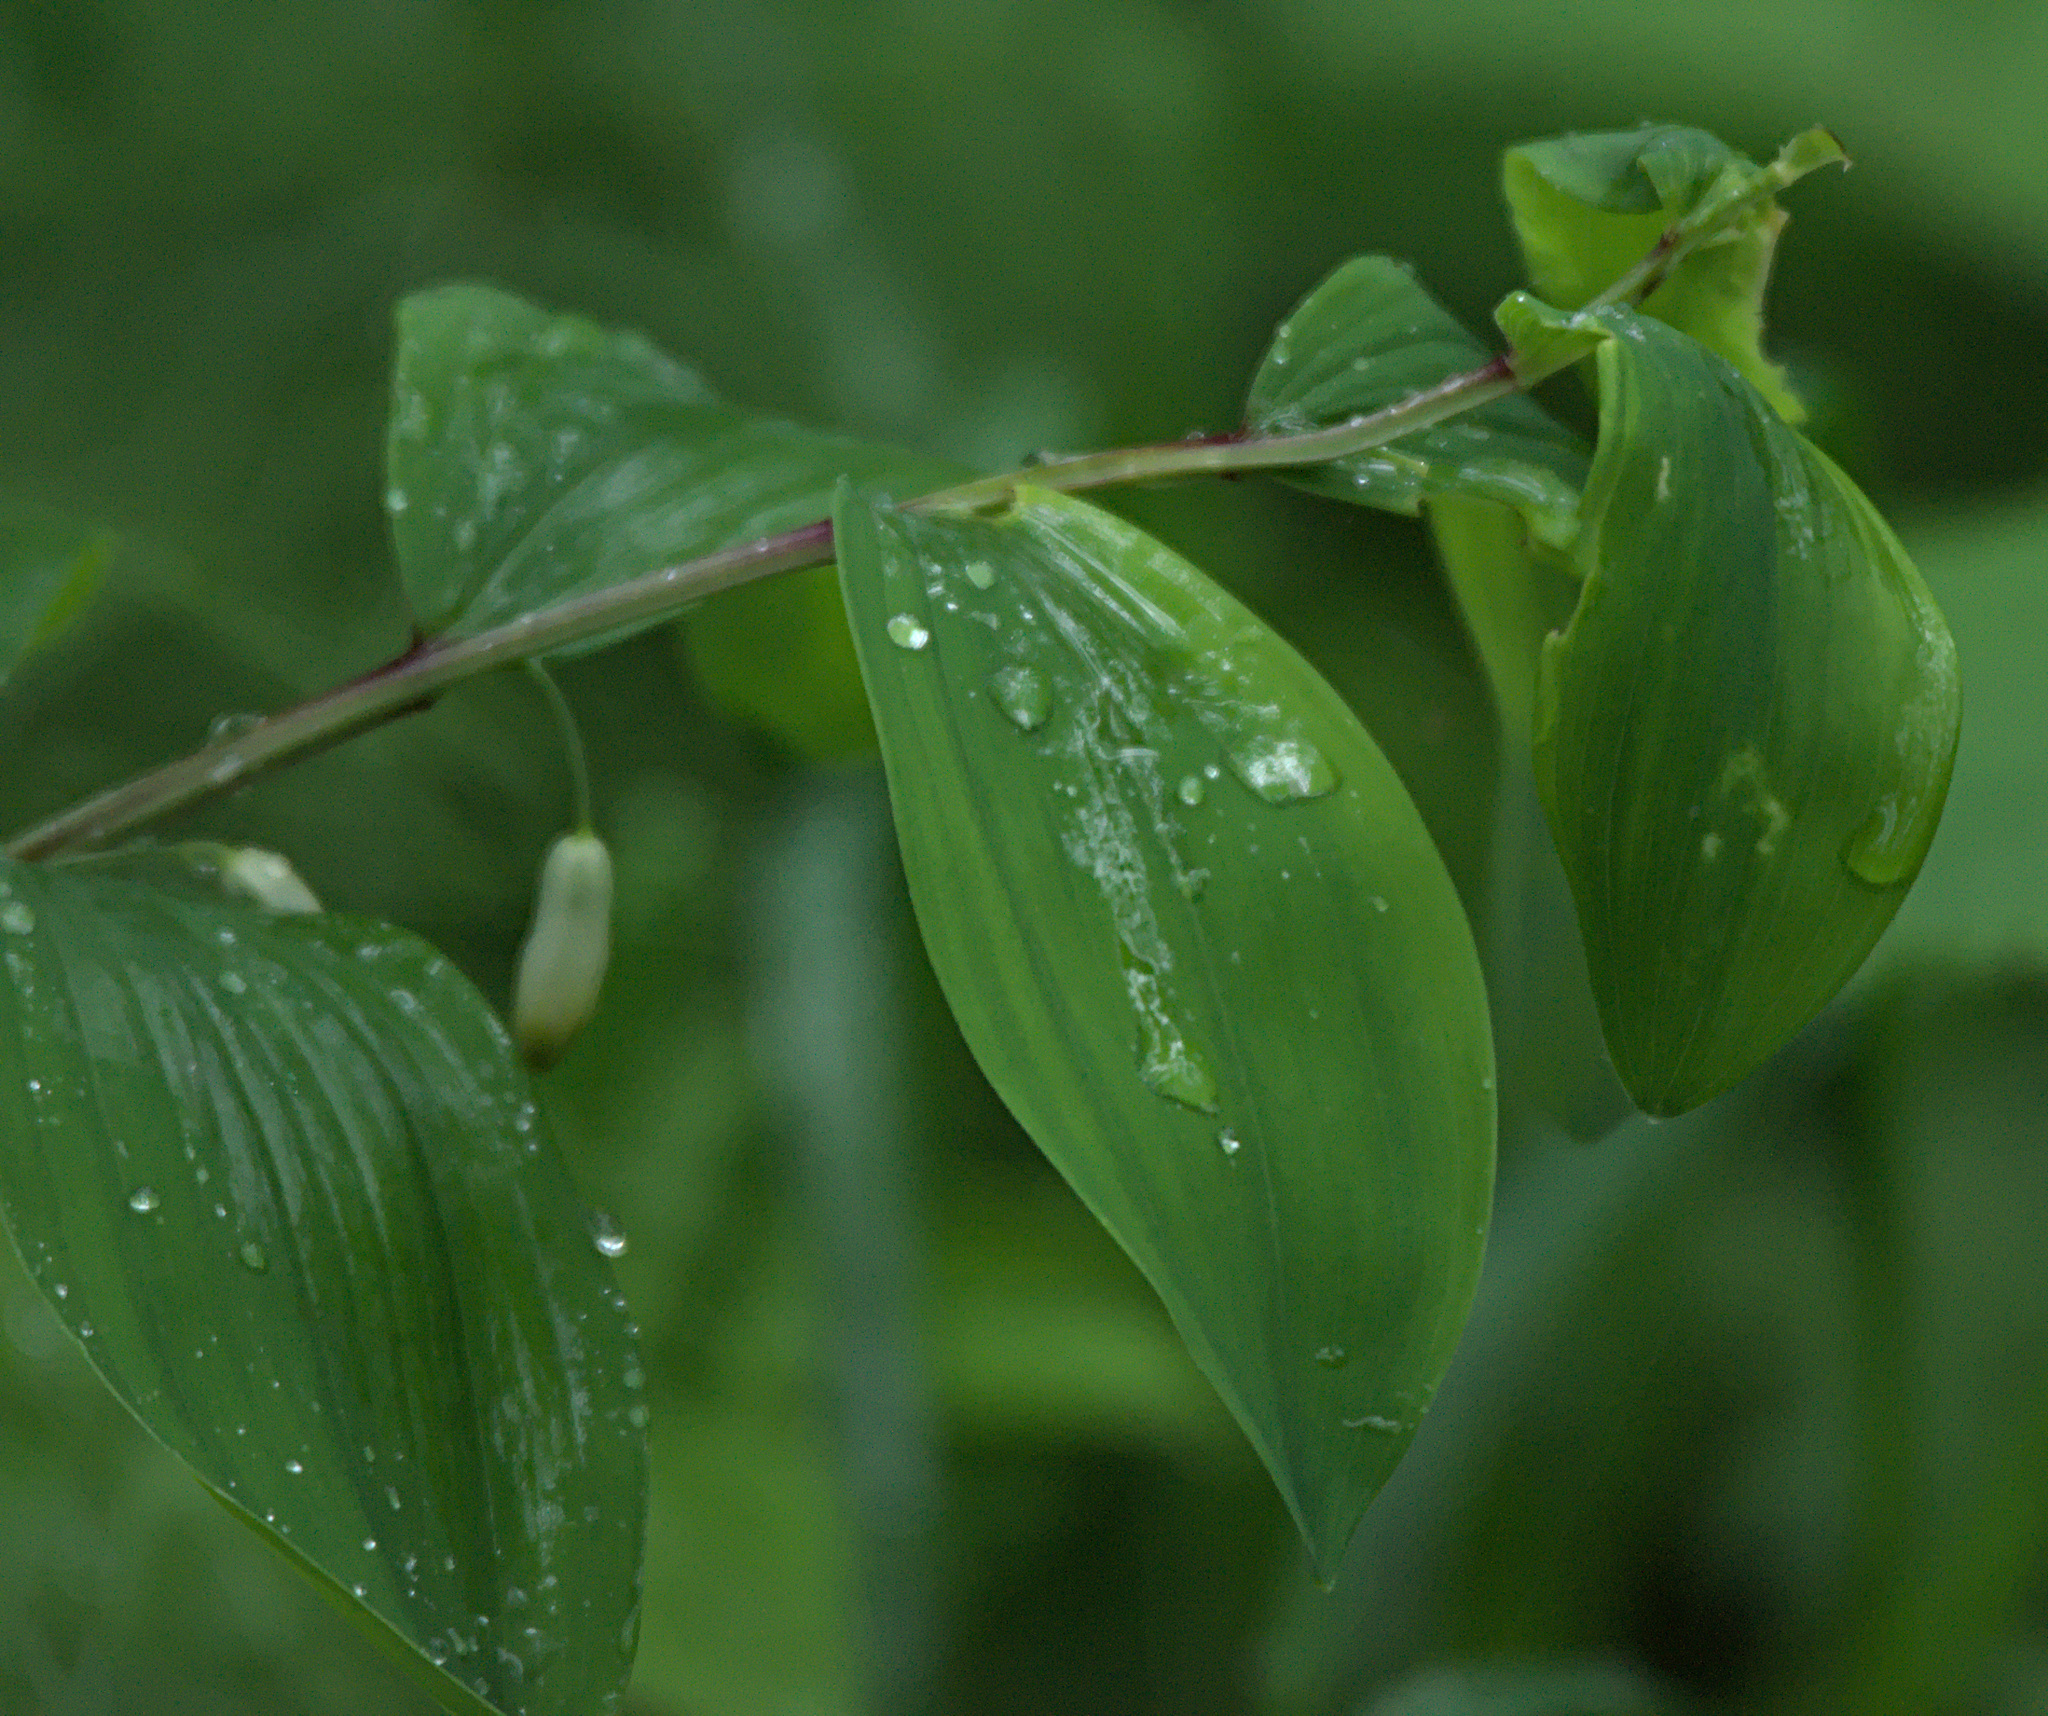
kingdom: Plantae
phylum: Tracheophyta
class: Liliopsida
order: Asparagales
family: Asparagaceae
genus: Polygonatum
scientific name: Polygonatum odoratum
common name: Angular solomon's-seal
